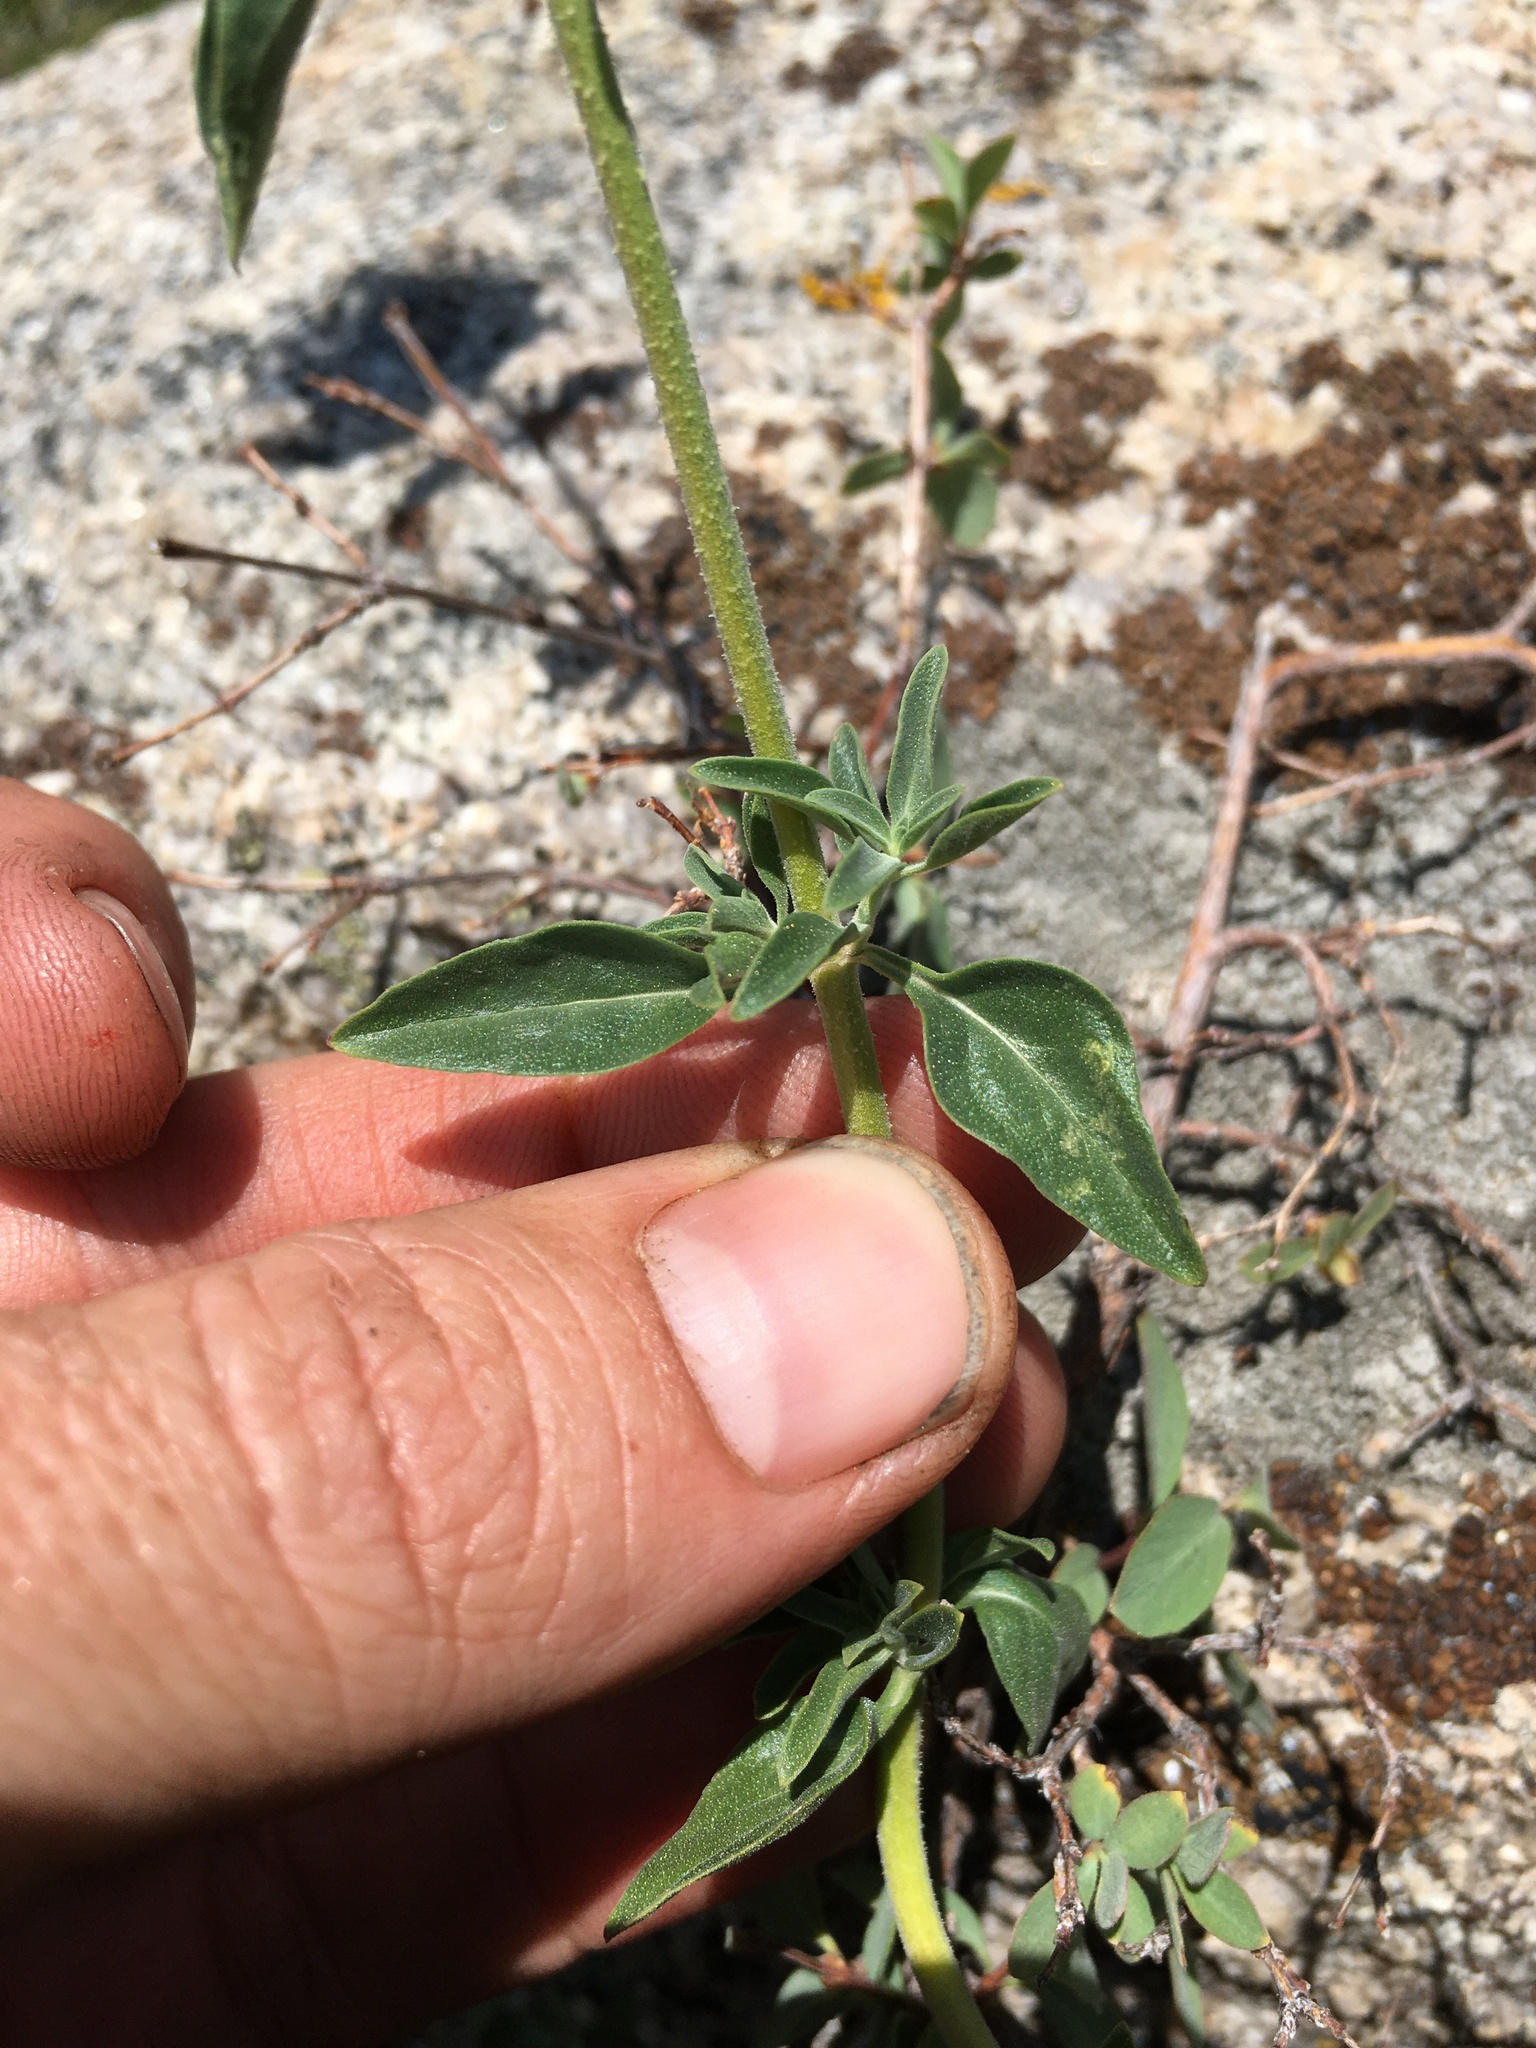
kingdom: Plantae
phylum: Tracheophyta
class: Magnoliopsida
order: Lamiales
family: Lamiaceae
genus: Monardella
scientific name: Monardella odoratissima
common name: Pacific monardella
